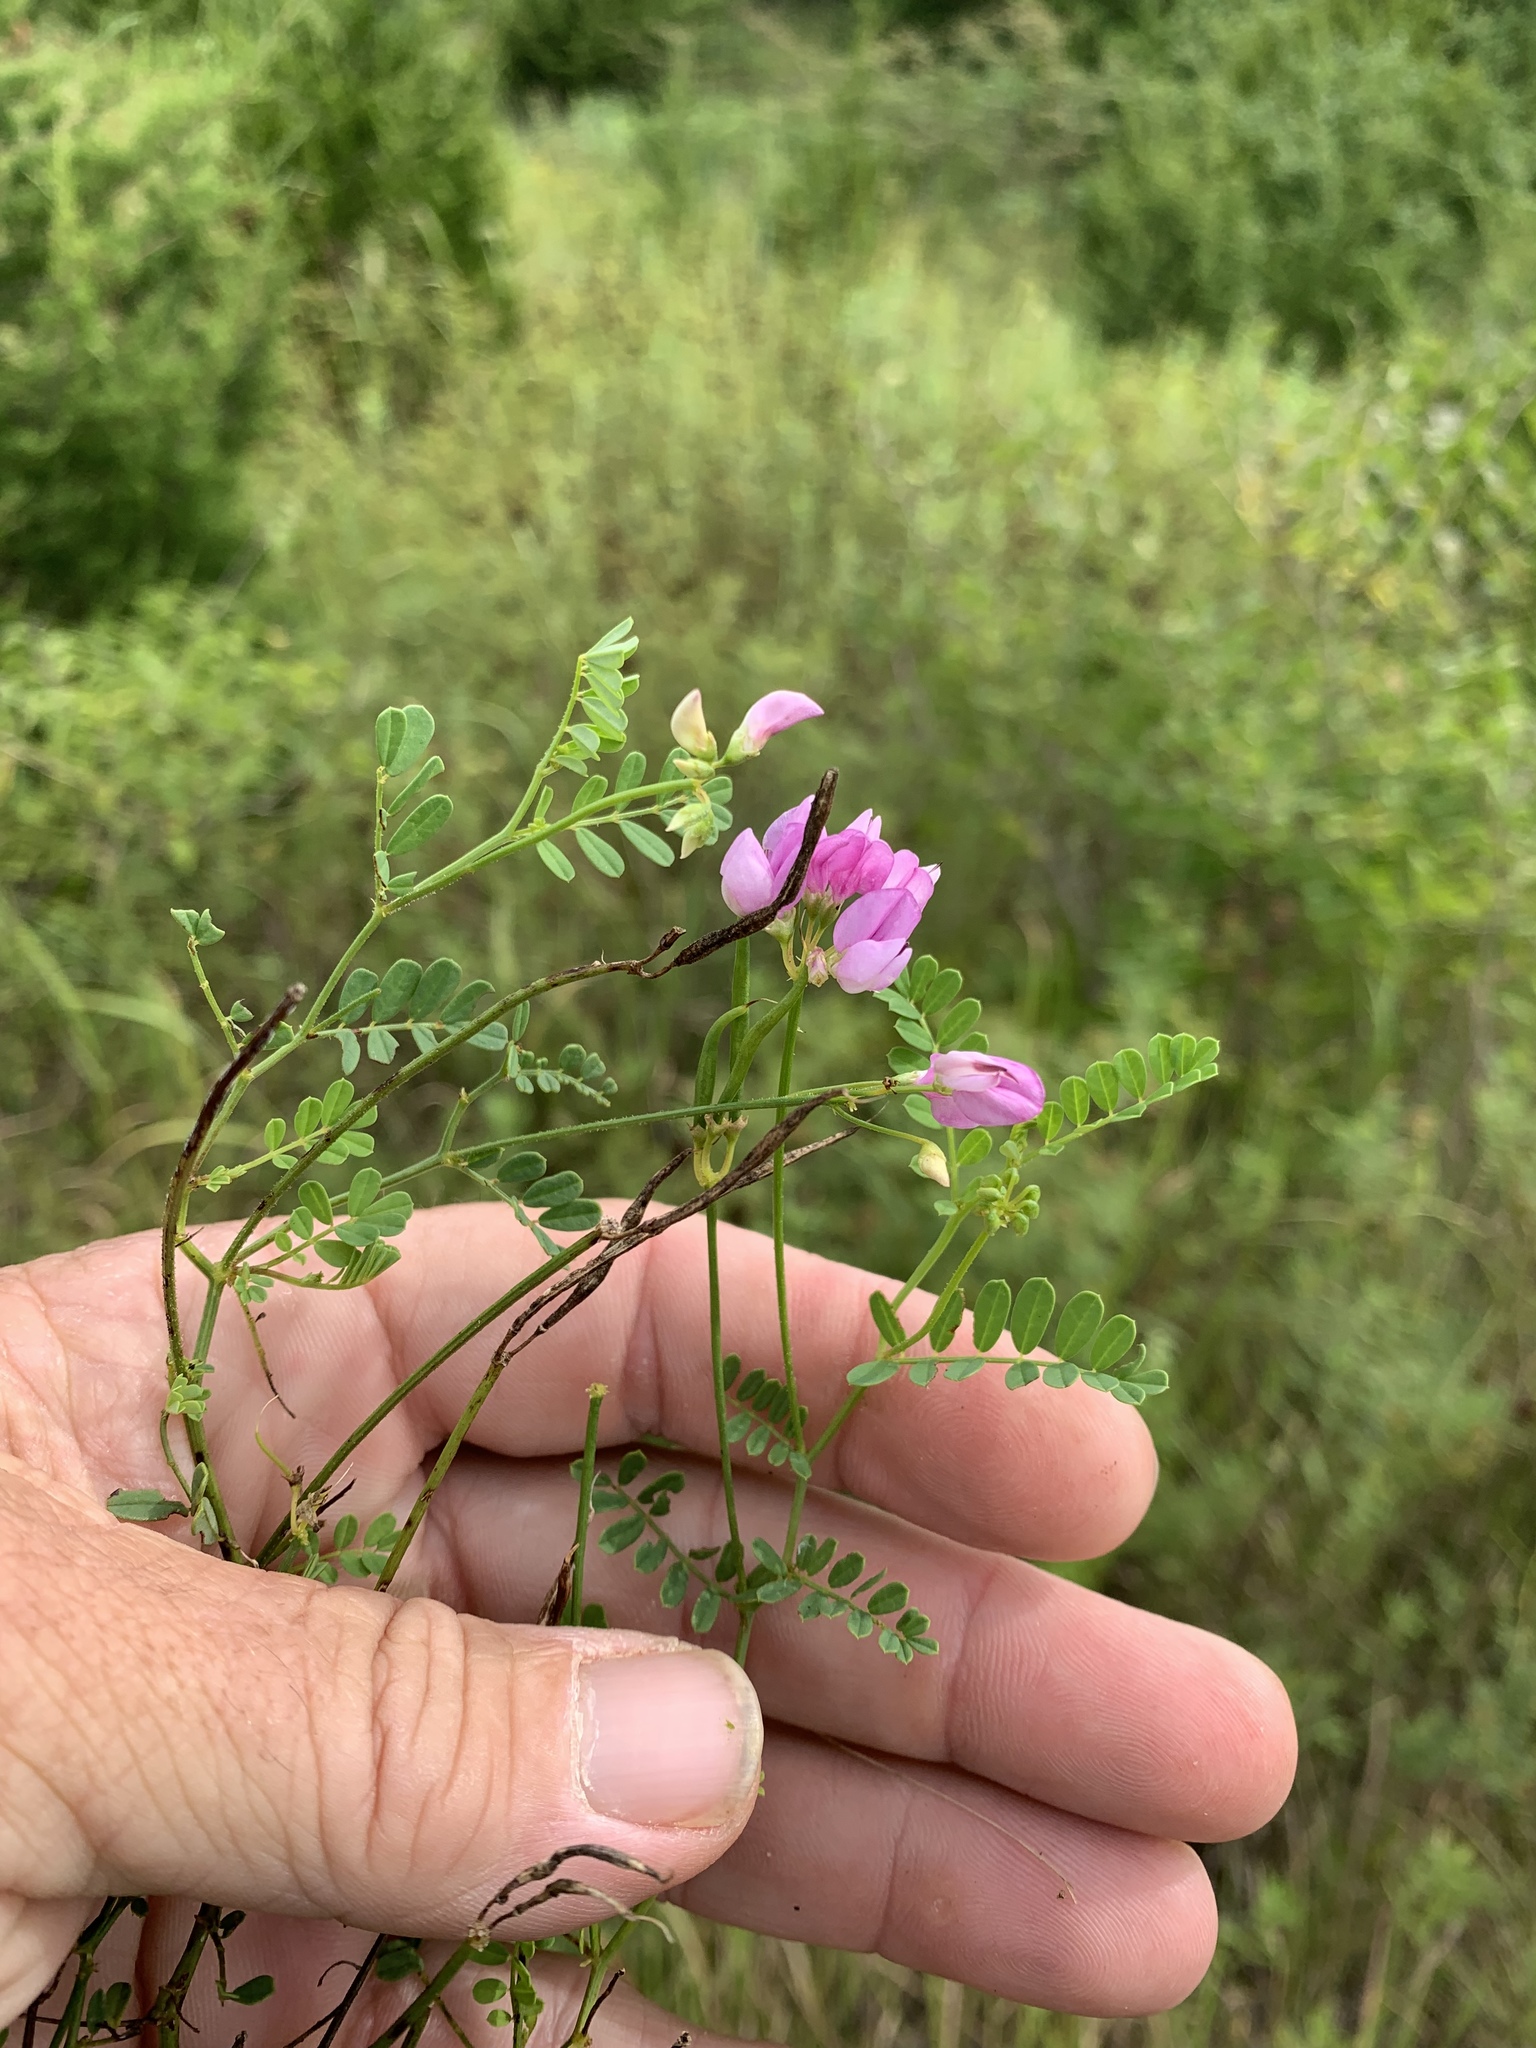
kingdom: Plantae
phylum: Tracheophyta
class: Magnoliopsida
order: Fabales
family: Fabaceae
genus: Coronilla
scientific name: Coronilla varia
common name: Crownvetch
